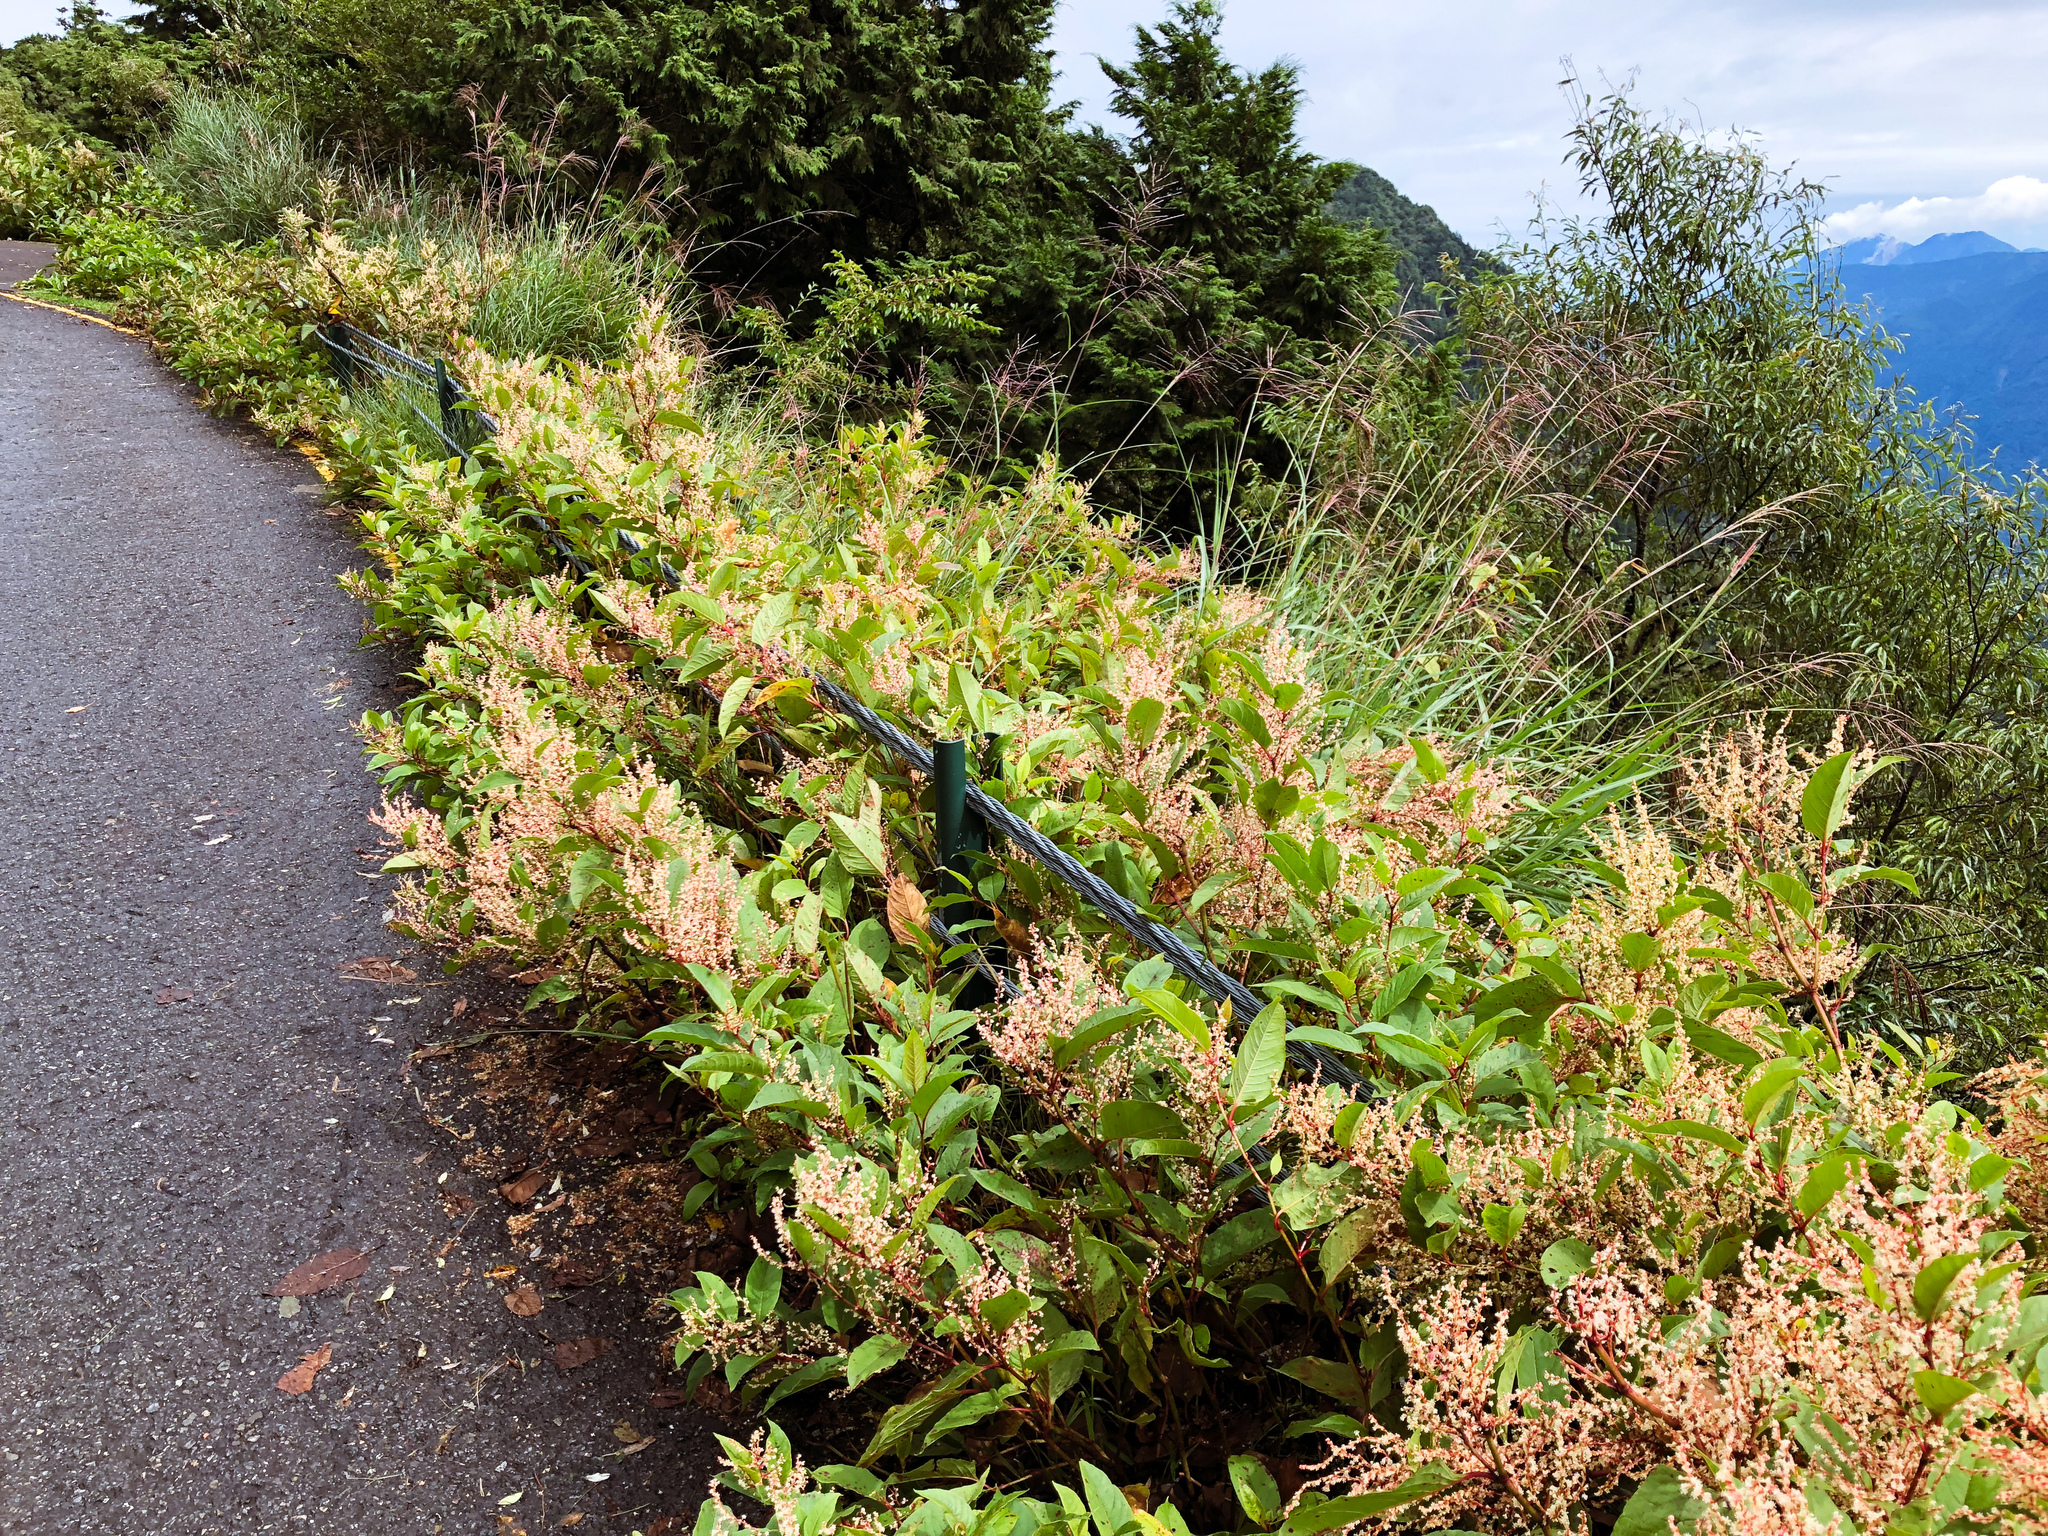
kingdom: Plantae
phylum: Tracheophyta
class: Magnoliopsida
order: Caryophyllales
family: Polygonaceae
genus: Reynoutria
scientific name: Reynoutria japonica
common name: Japanese knotweed
